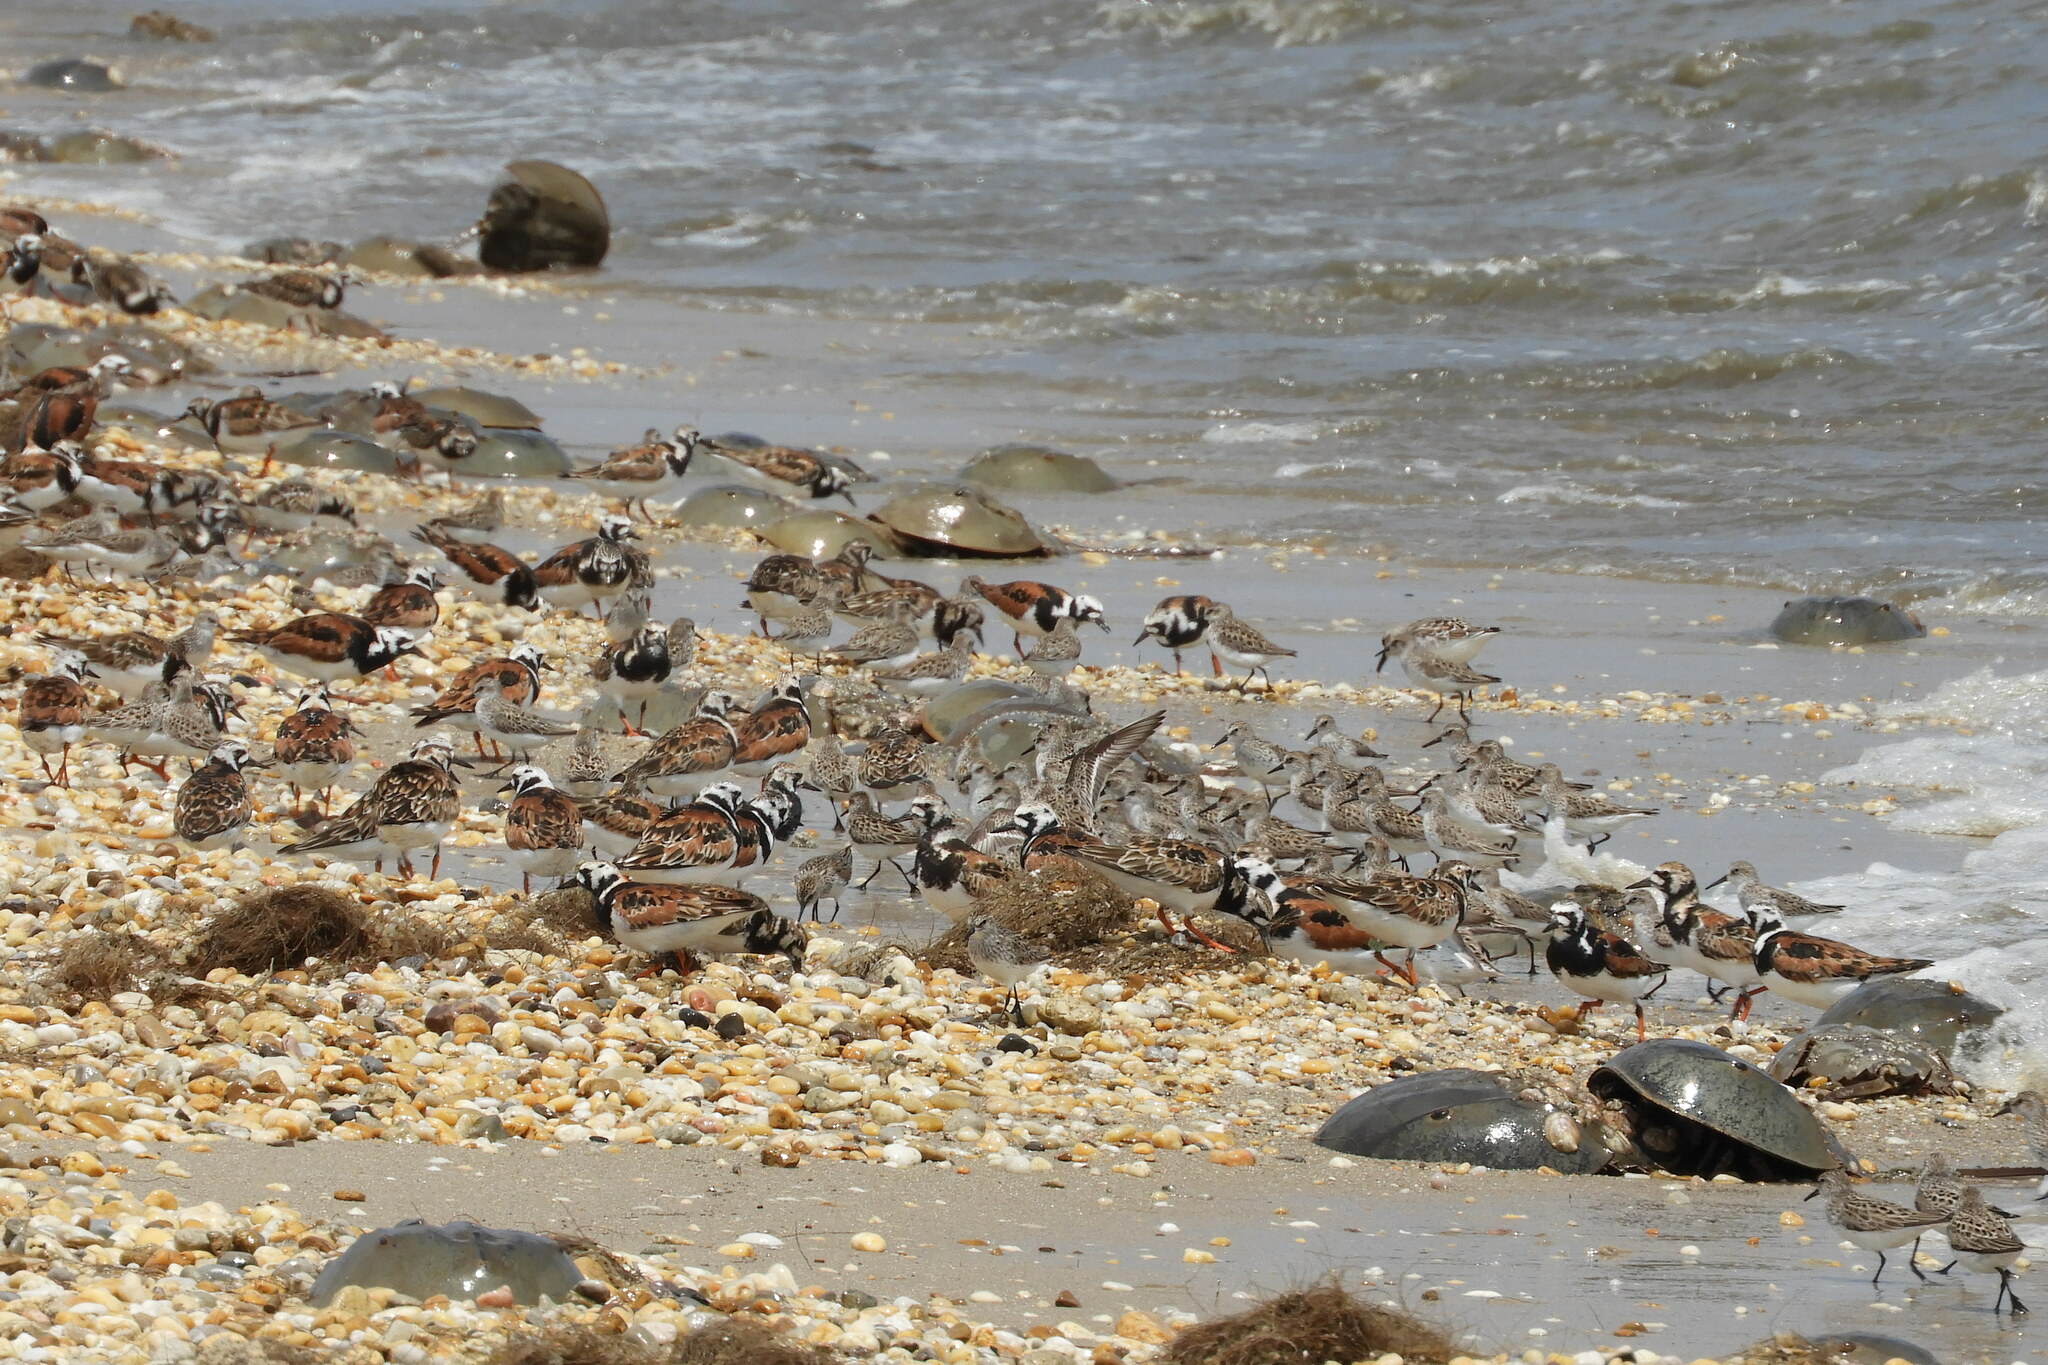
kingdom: Animalia
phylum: Chordata
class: Aves
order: Charadriiformes
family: Scolopacidae
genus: Arenaria
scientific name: Arenaria interpres
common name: Ruddy turnstone
